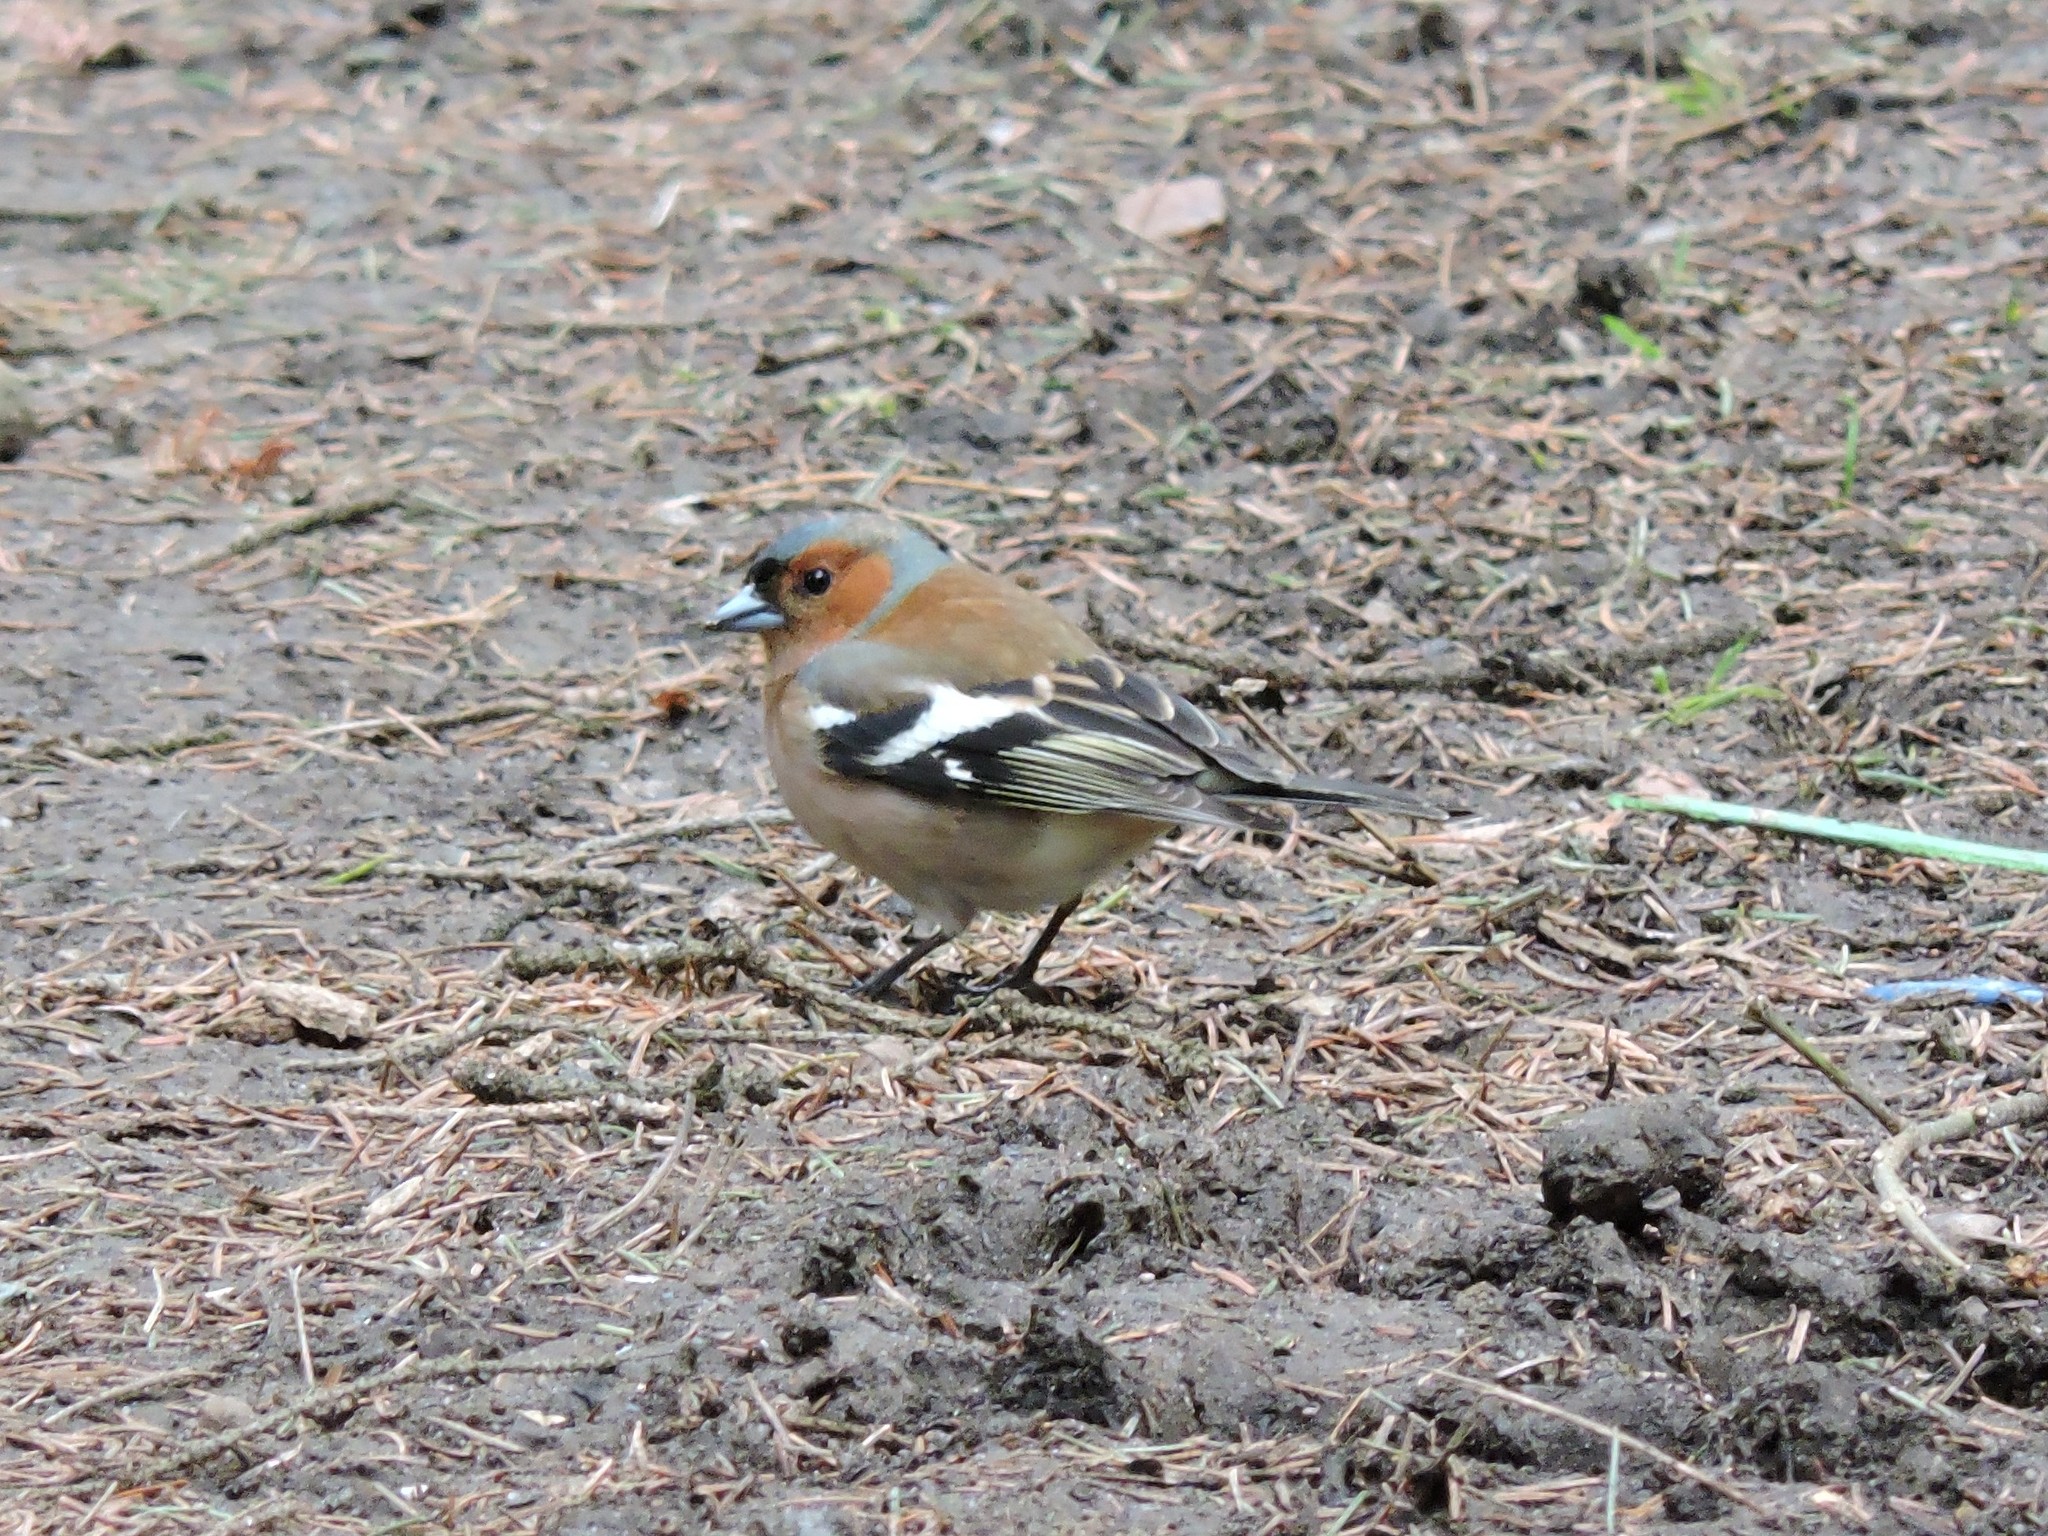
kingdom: Animalia
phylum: Chordata
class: Aves
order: Passeriformes
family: Fringillidae
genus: Fringilla
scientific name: Fringilla coelebs
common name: Common chaffinch
